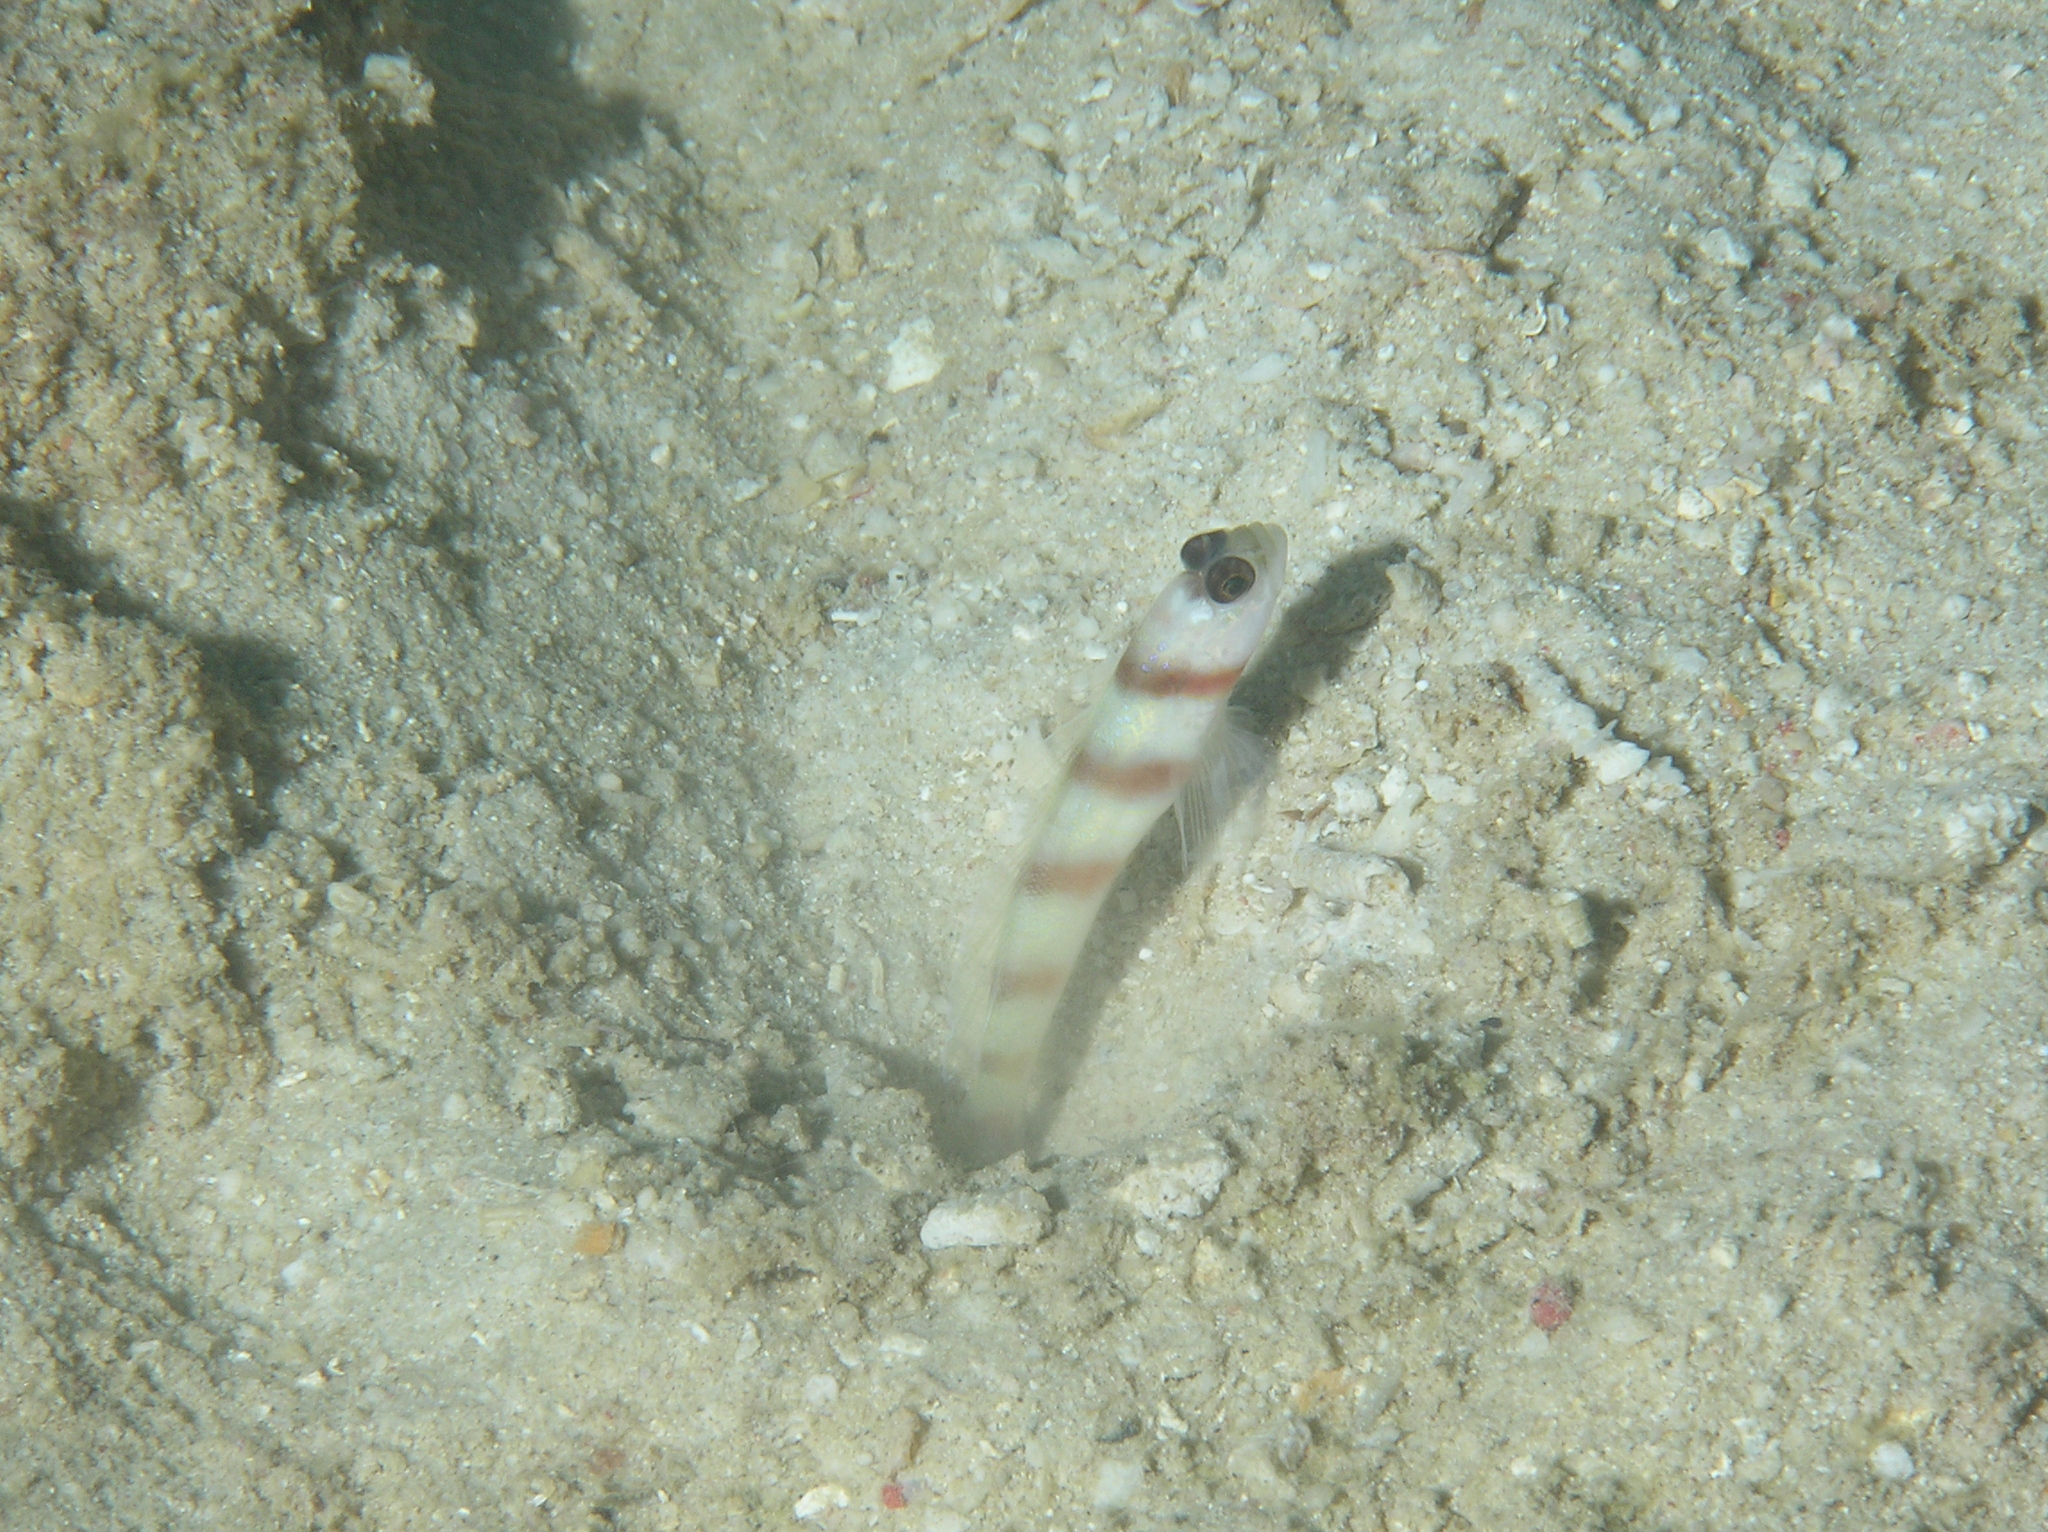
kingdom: Animalia
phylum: Chordata
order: Perciformes
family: Gobiidae
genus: Amblyeleotris
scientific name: Amblyeleotris steinitzi
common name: Steinitz' prawn-goby
